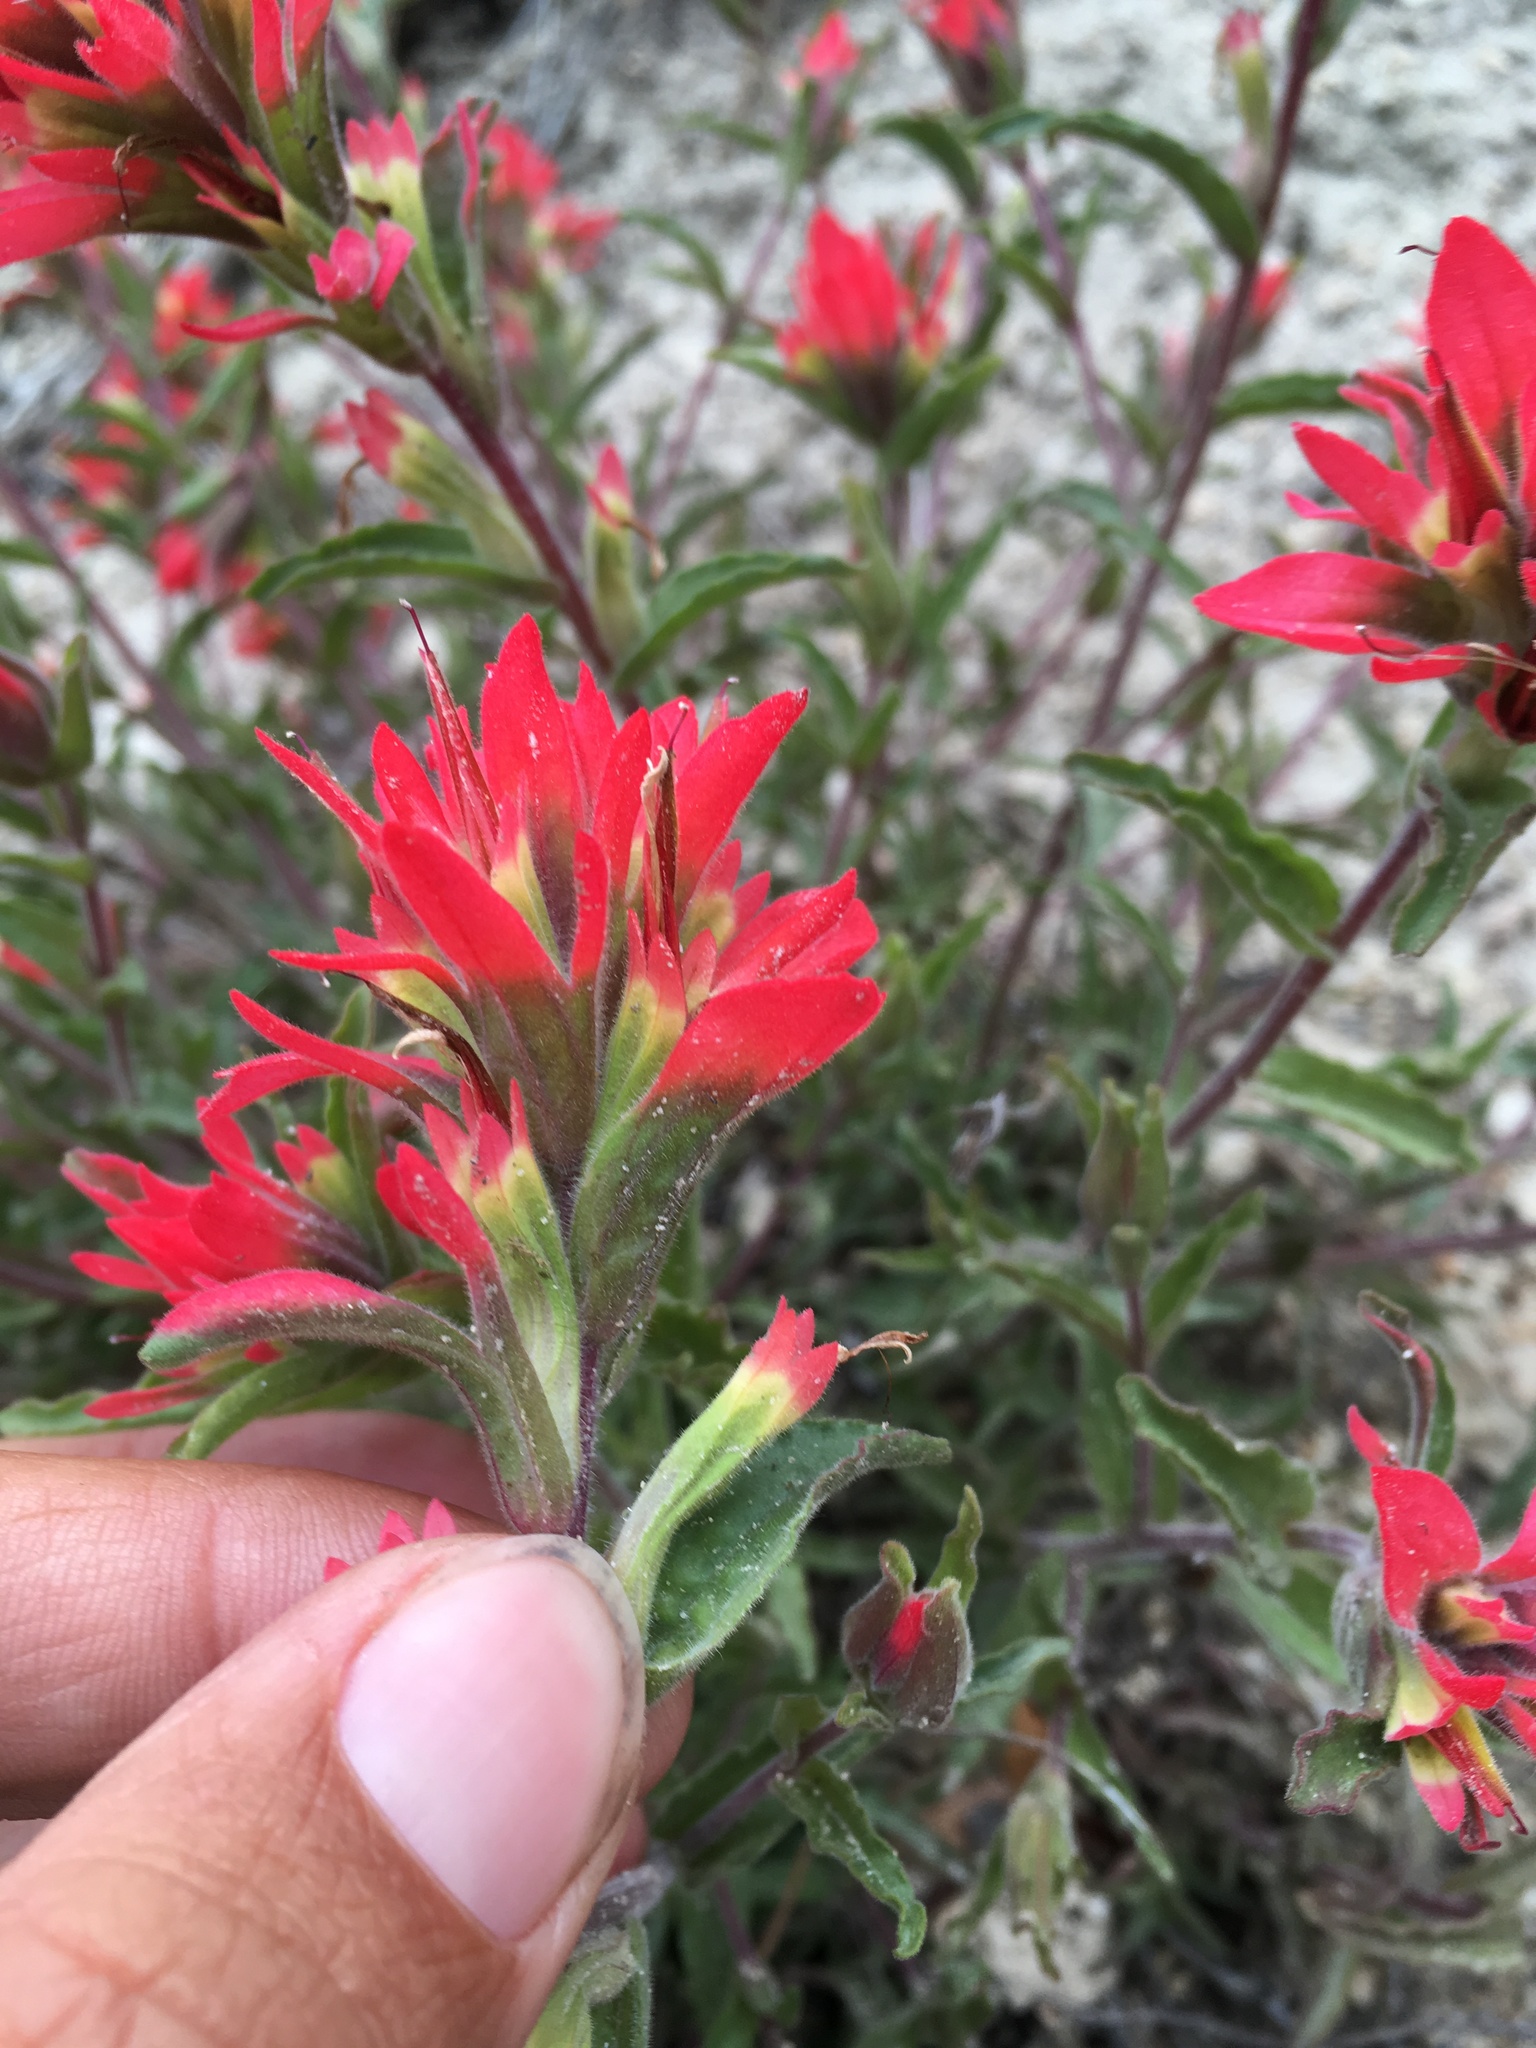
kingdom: Plantae
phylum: Tracheophyta
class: Magnoliopsida
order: Lamiales
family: Orobanchaceae
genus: Castilleja
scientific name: Castilleja martini
